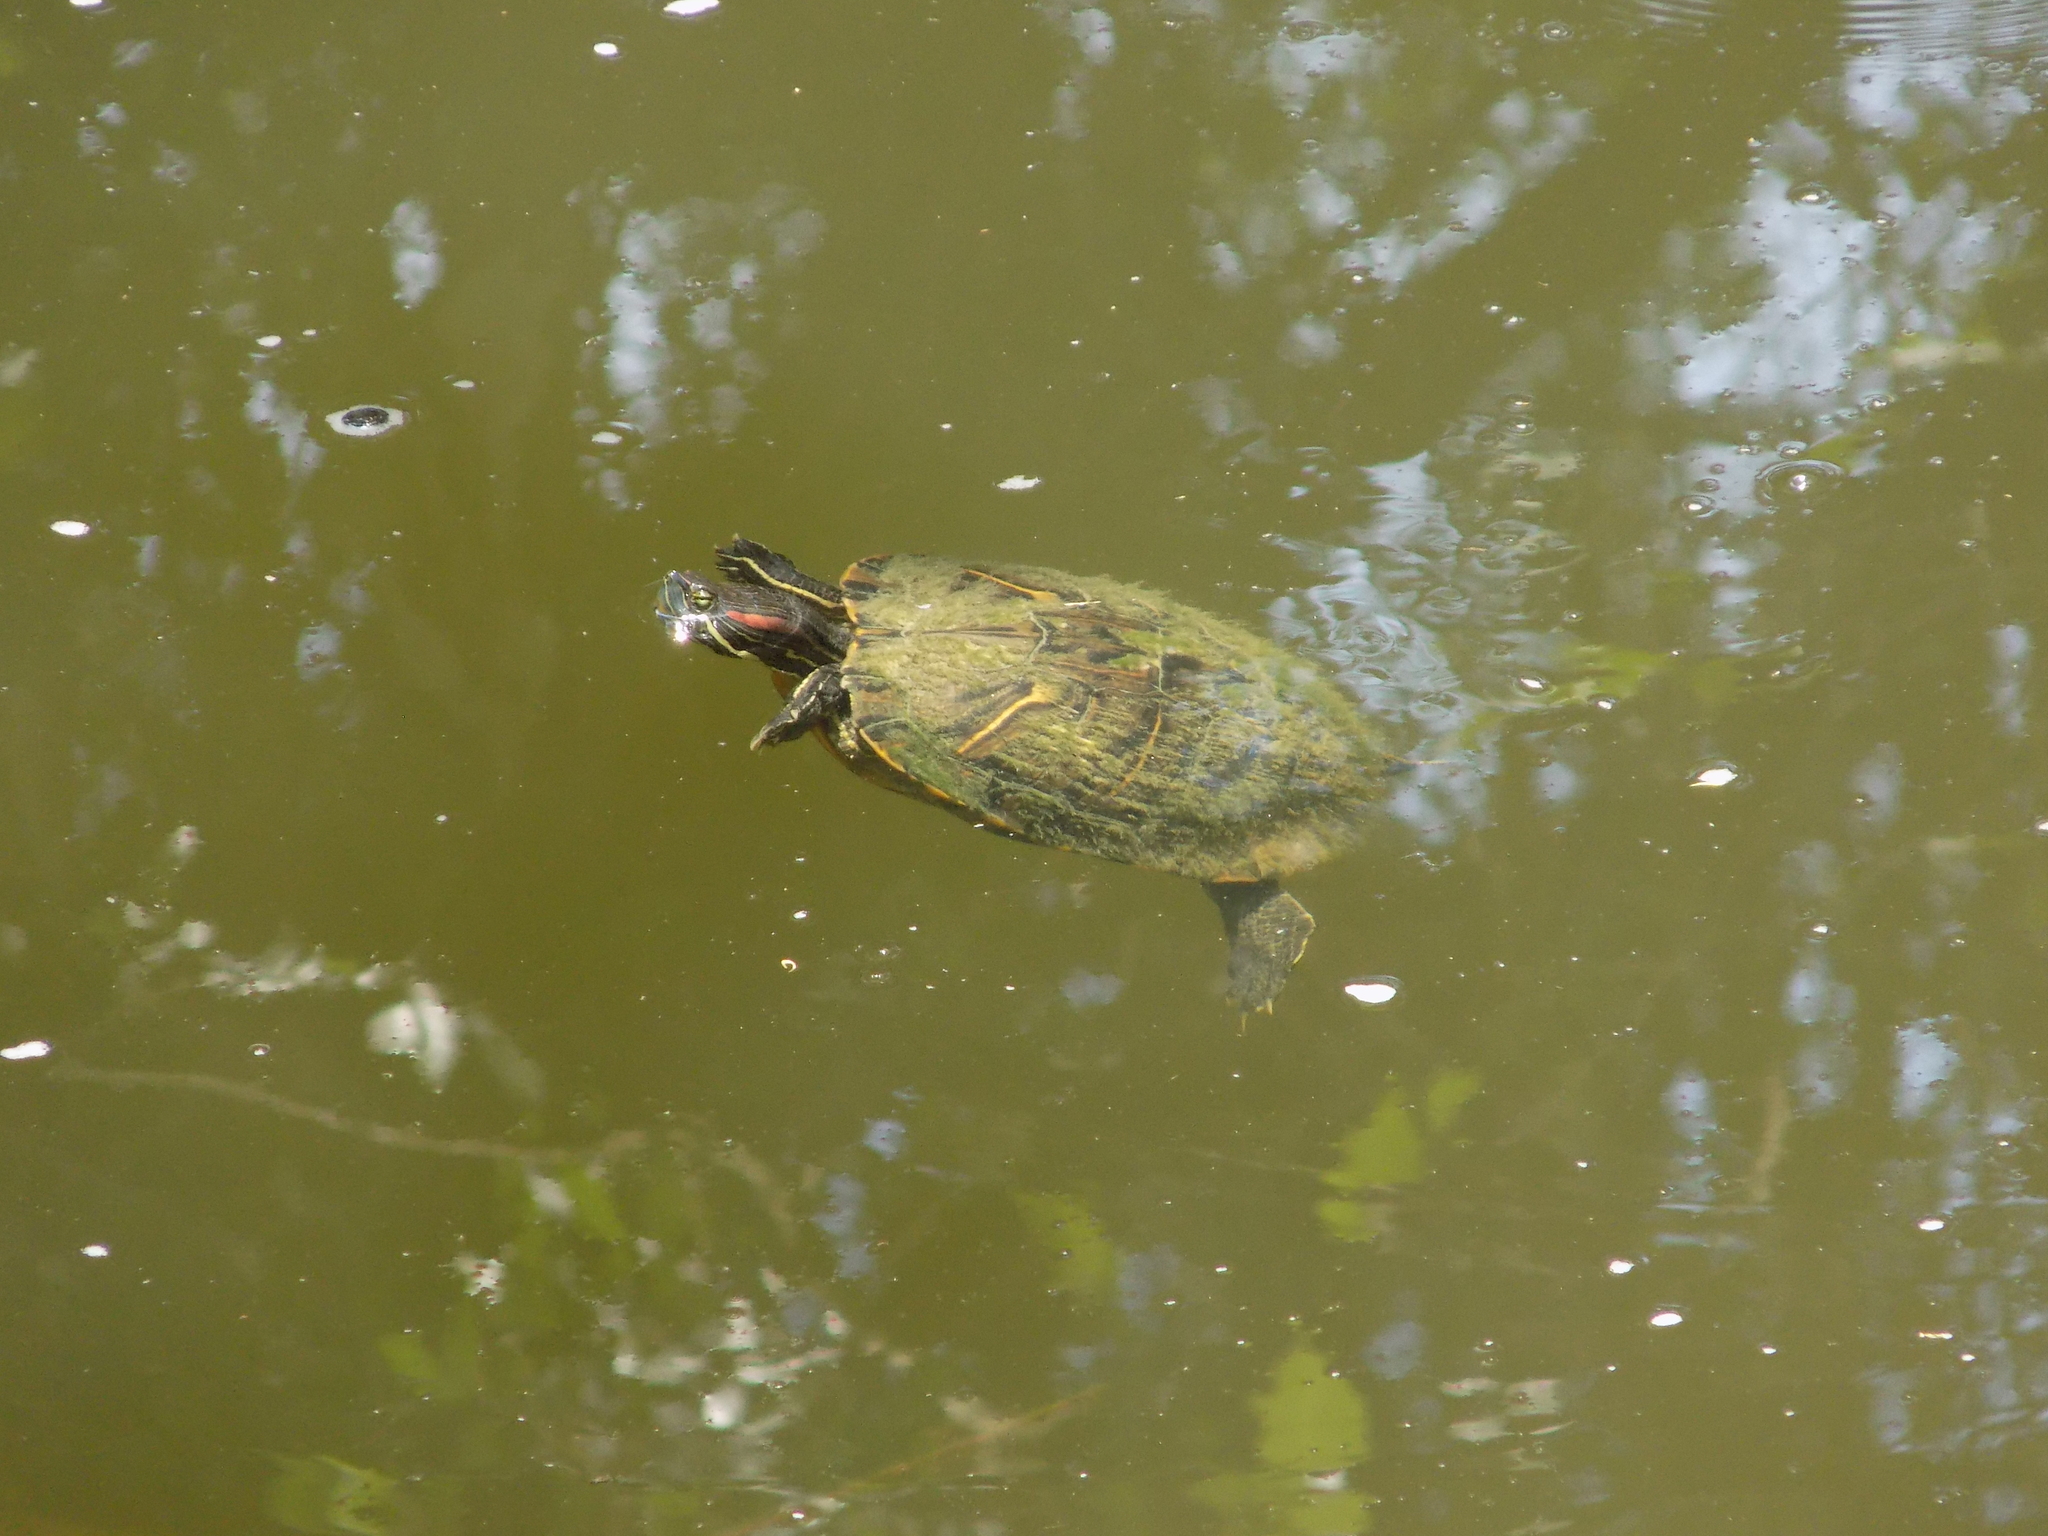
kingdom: Animalia
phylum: Chordata
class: Testudines
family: Emydidae
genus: Trachemys
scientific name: Trachemys scripta
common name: Slider
